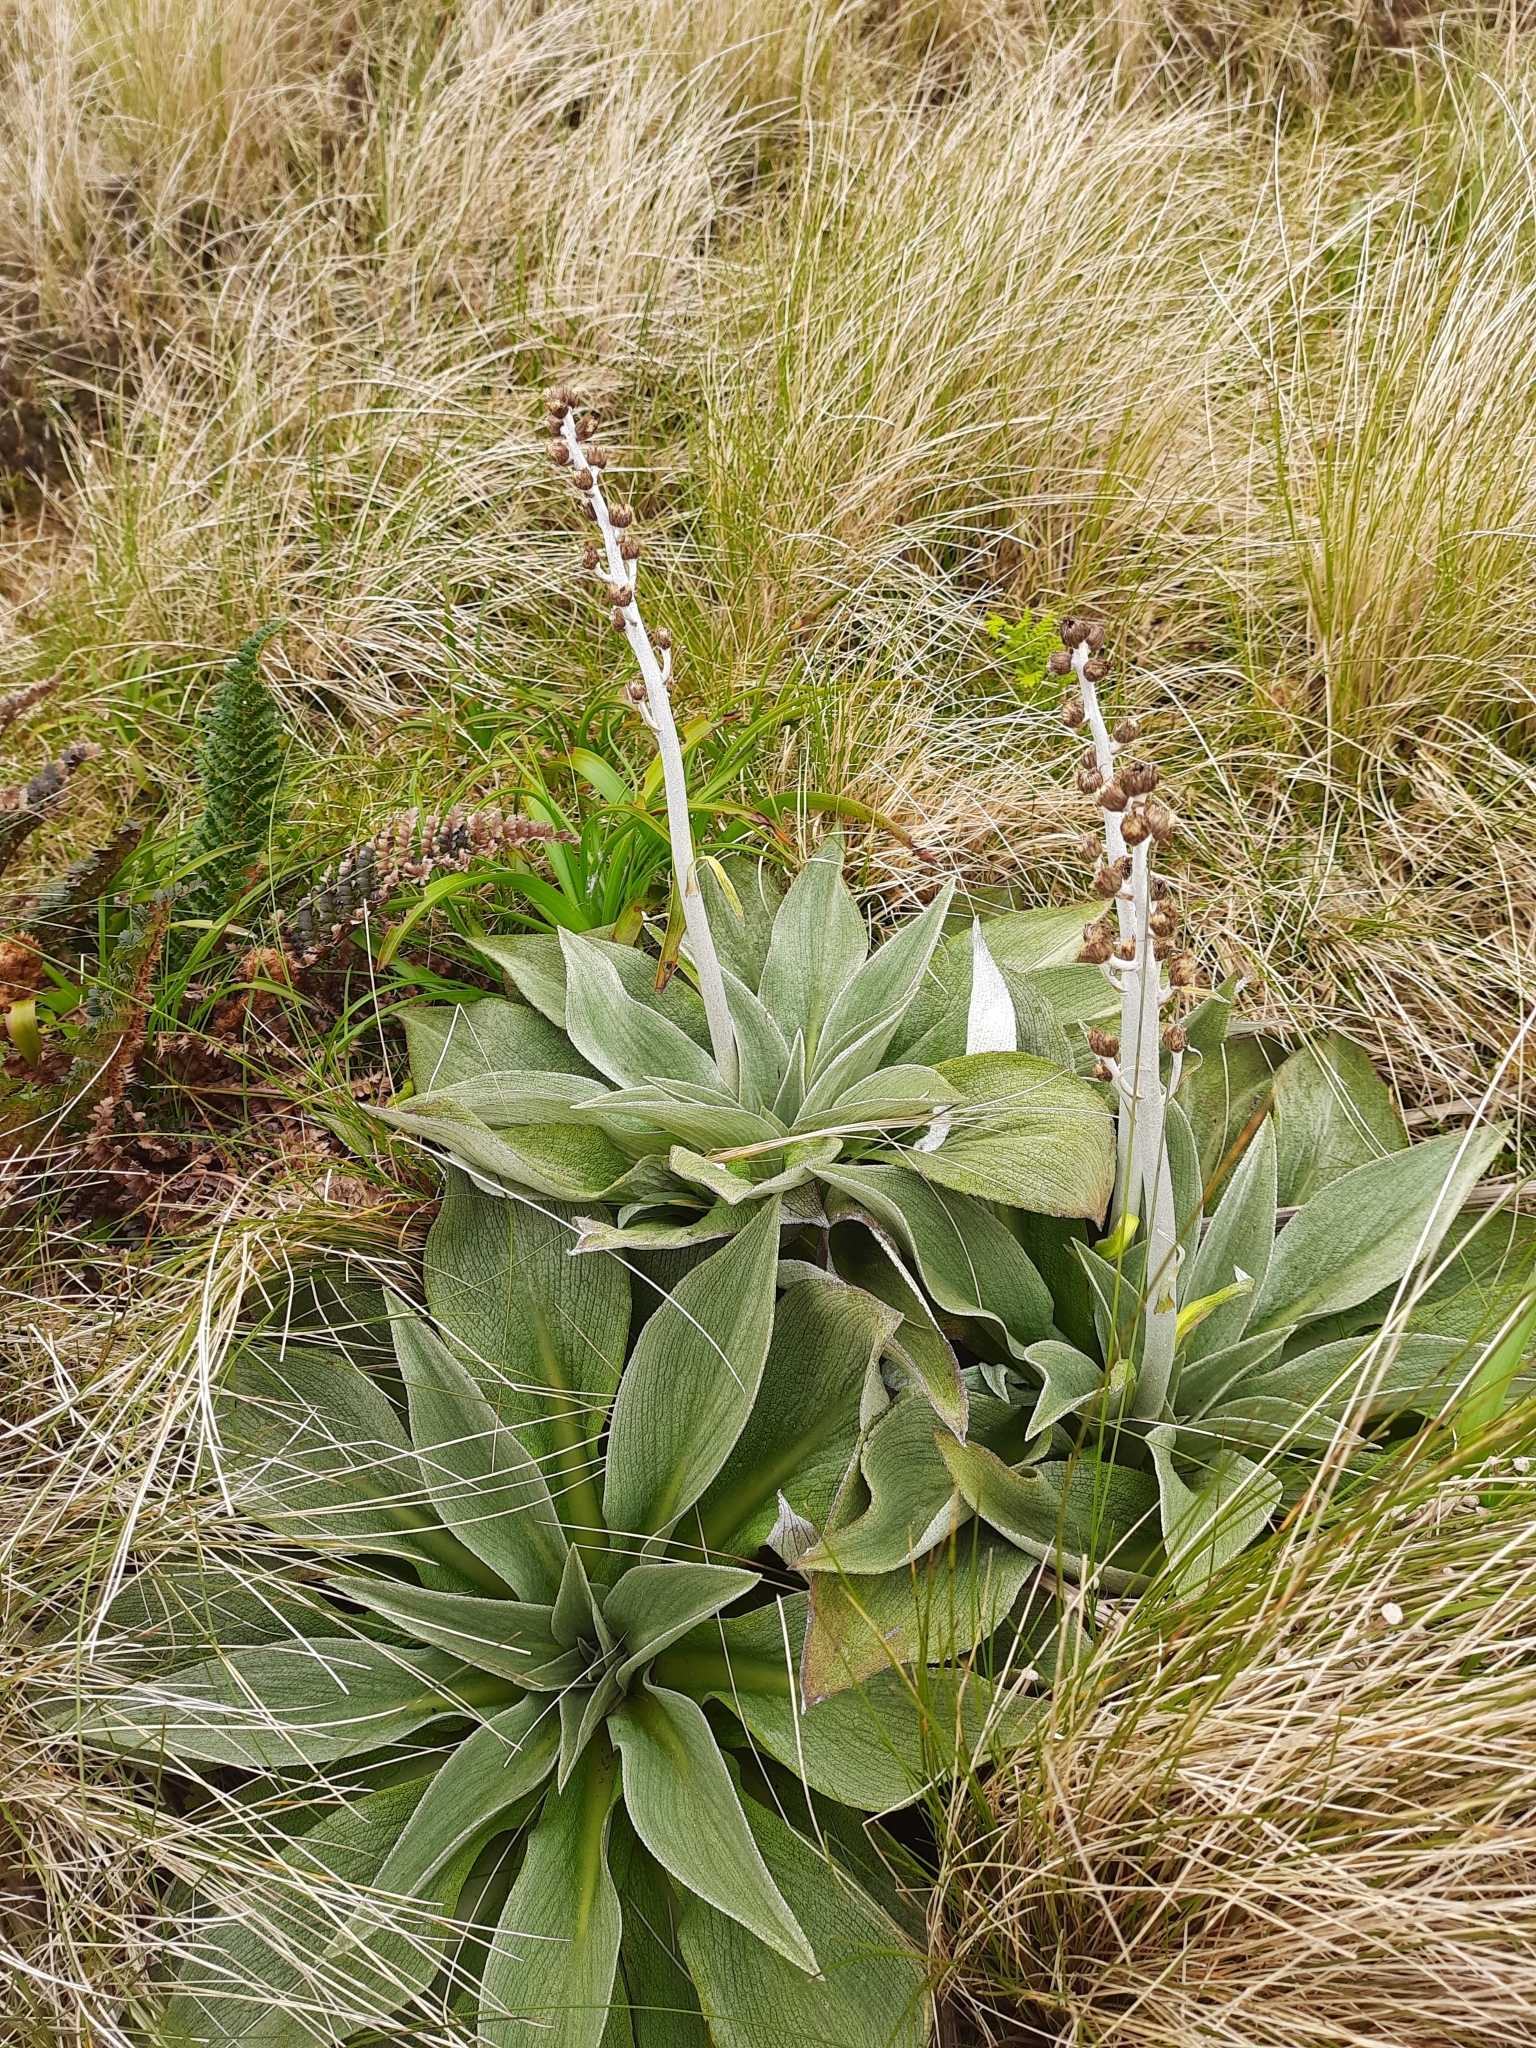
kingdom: Plantae
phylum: Tracheophyta
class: Magnoliopsida
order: Asterales
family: Asteraceae
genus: Pleurophyllum
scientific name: Pleurophyllum hookeri
